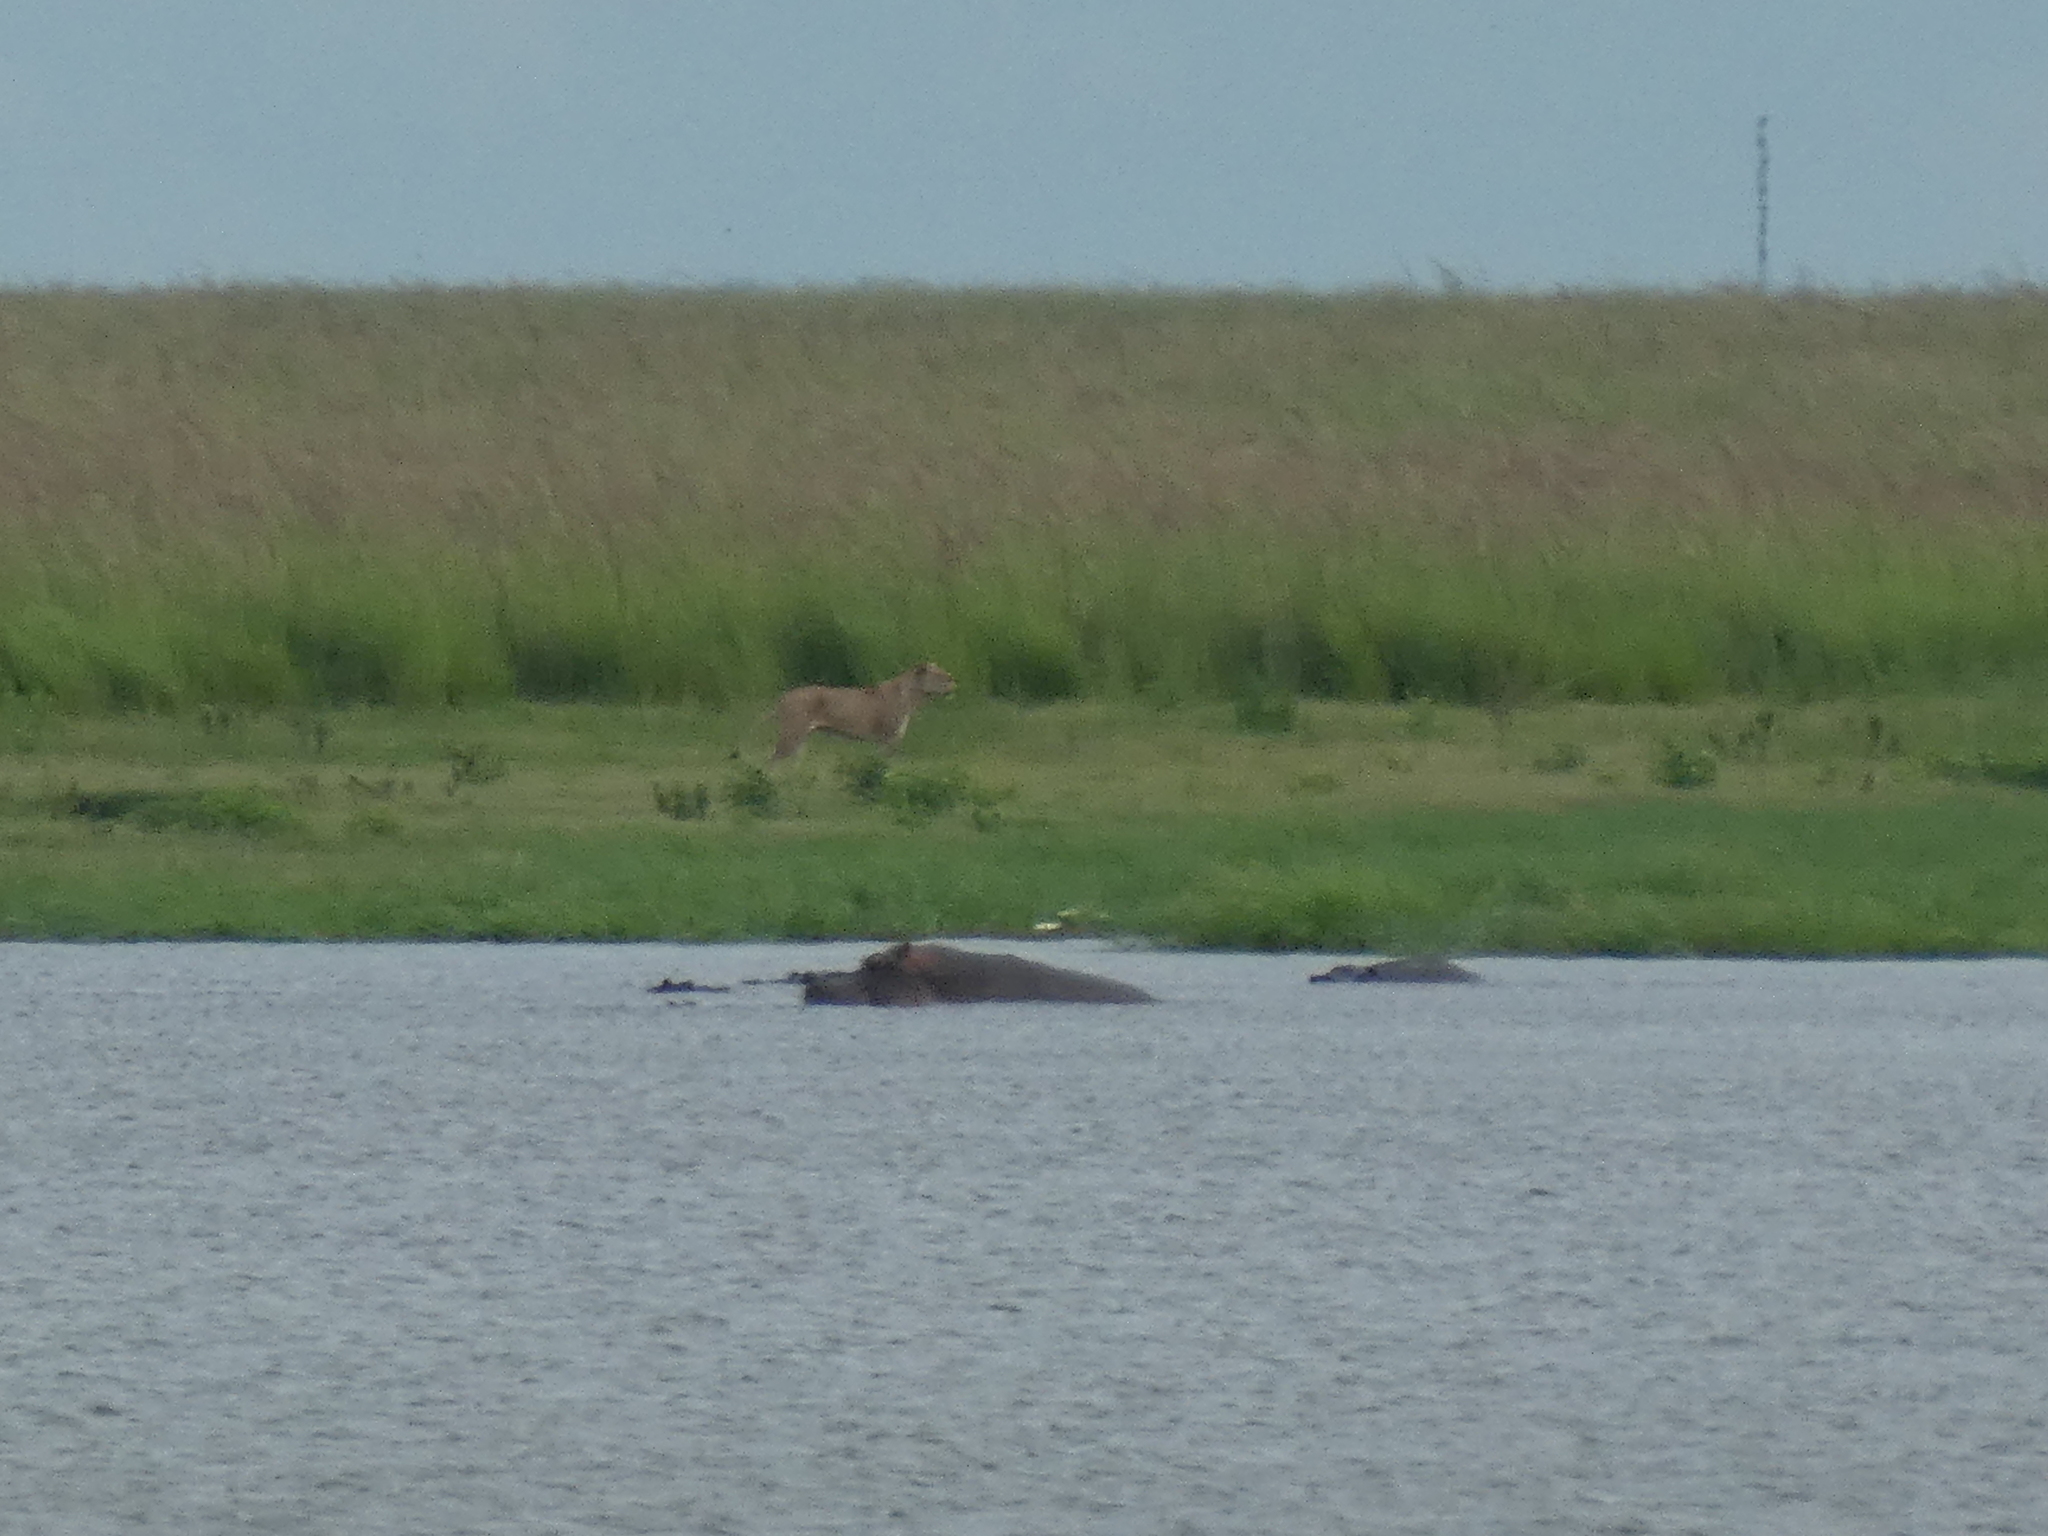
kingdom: Animalia
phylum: Chordata
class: Mammalia
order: Carnivora
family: Felidae
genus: Panthera
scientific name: Panthera leo
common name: Lion
